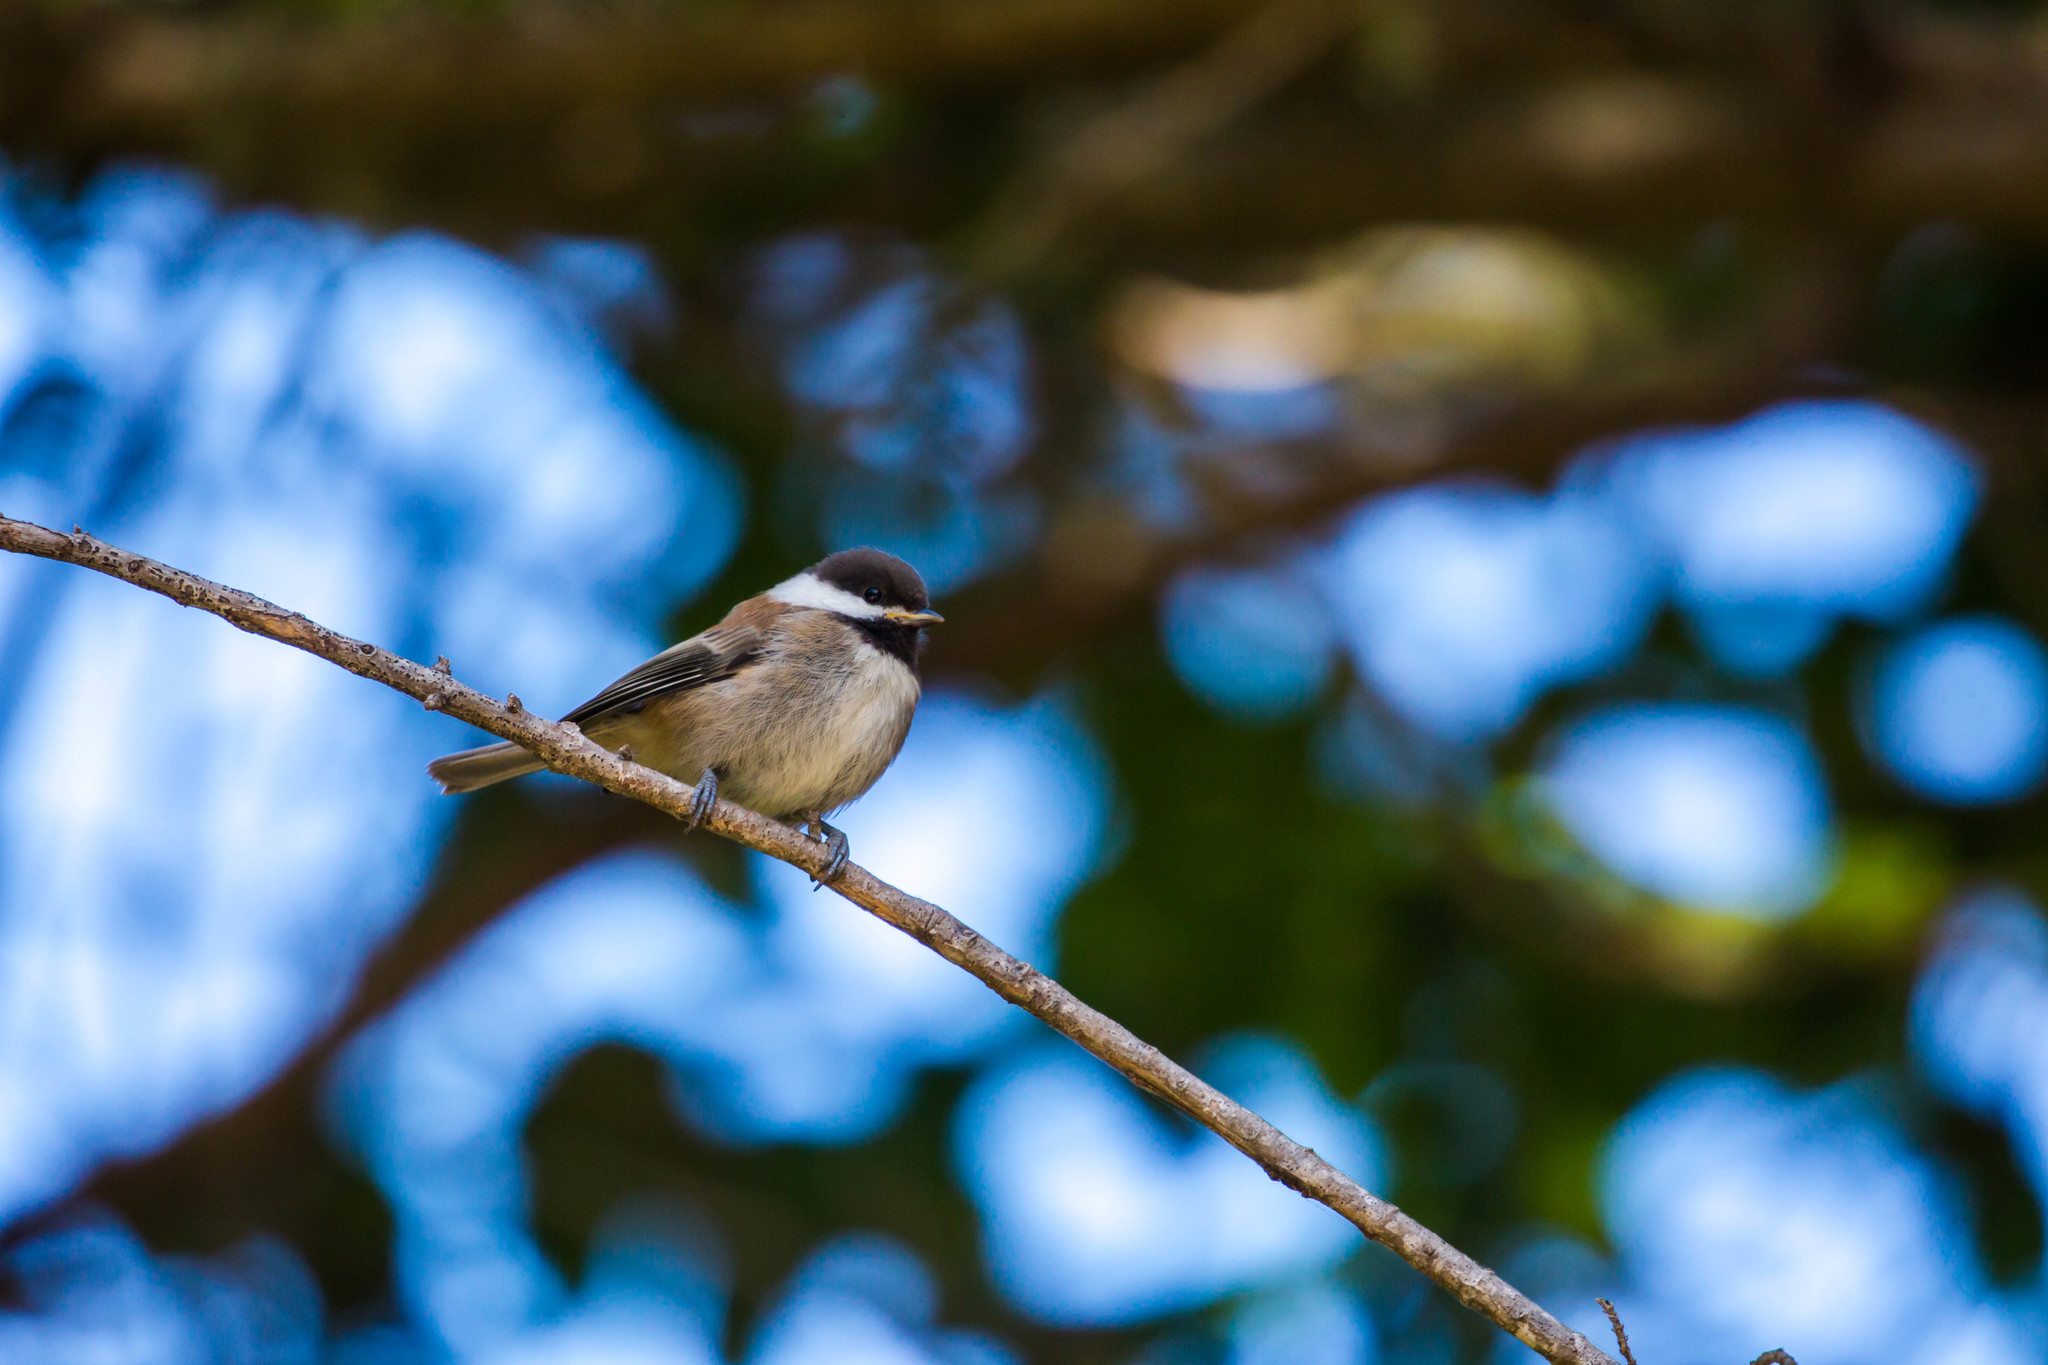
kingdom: Animalia
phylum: Chordata
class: Aves
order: Passeriformes
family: Paridae
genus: Poecile
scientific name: Poecile rufescens
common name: Chestnut-backed chickadee
